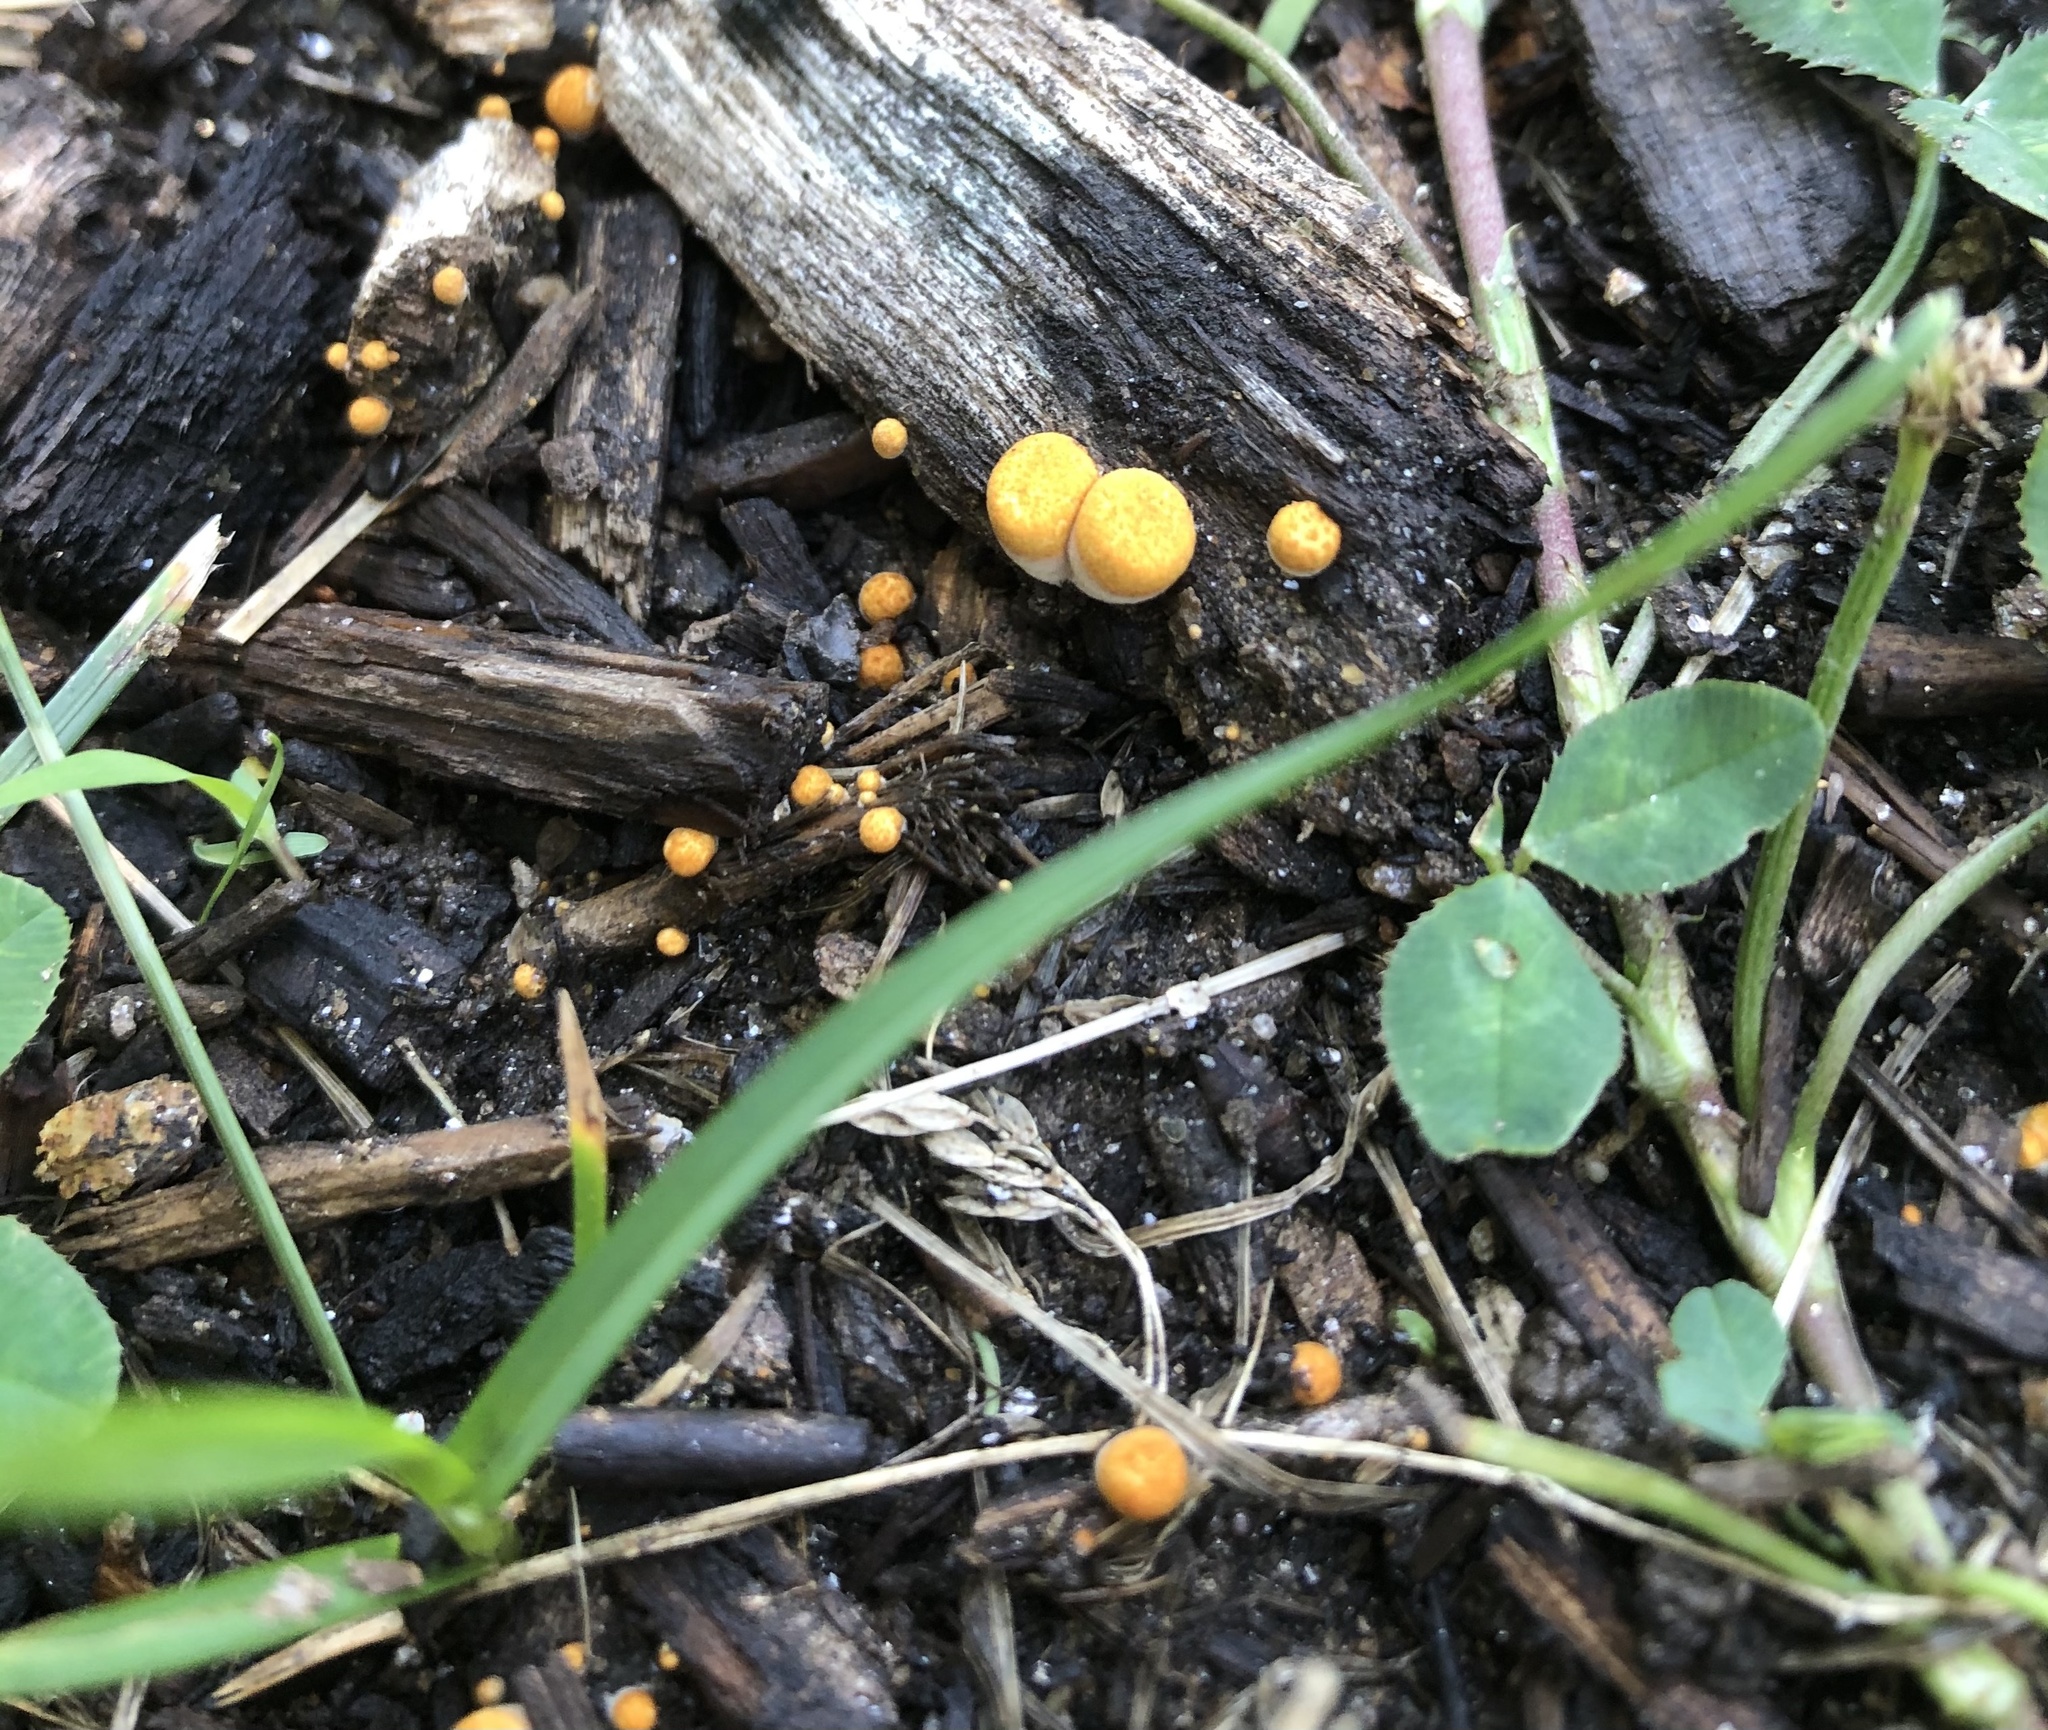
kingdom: Fungi
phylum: Basidiomycota
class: Agaricomycetes
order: Agaricales
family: Agaricaceae
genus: Cyathus
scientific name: Cyathus stercoreus
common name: Dung bird's nest
